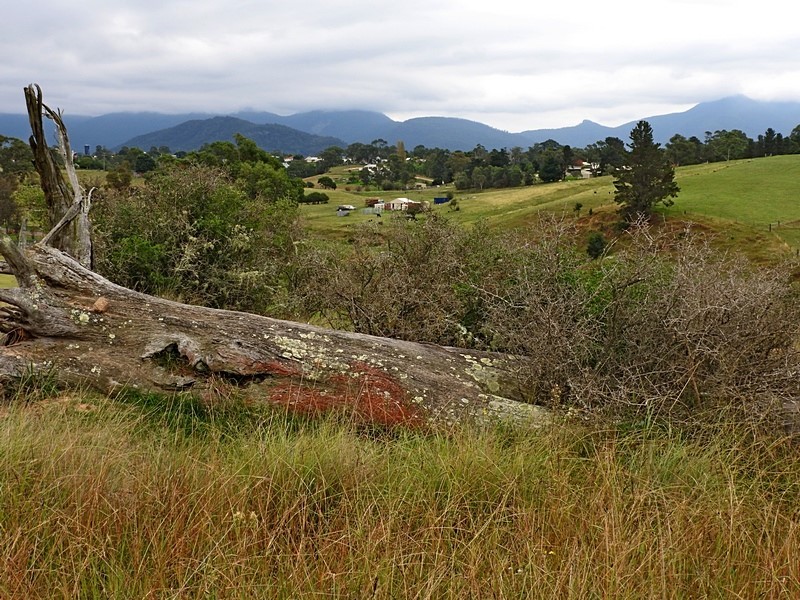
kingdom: Plantae
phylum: Tracheophyta
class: Magnoliopsida
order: Solanales
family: Solanaceae
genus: Lycium
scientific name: Lycium ferocissimum
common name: African boxthorn
